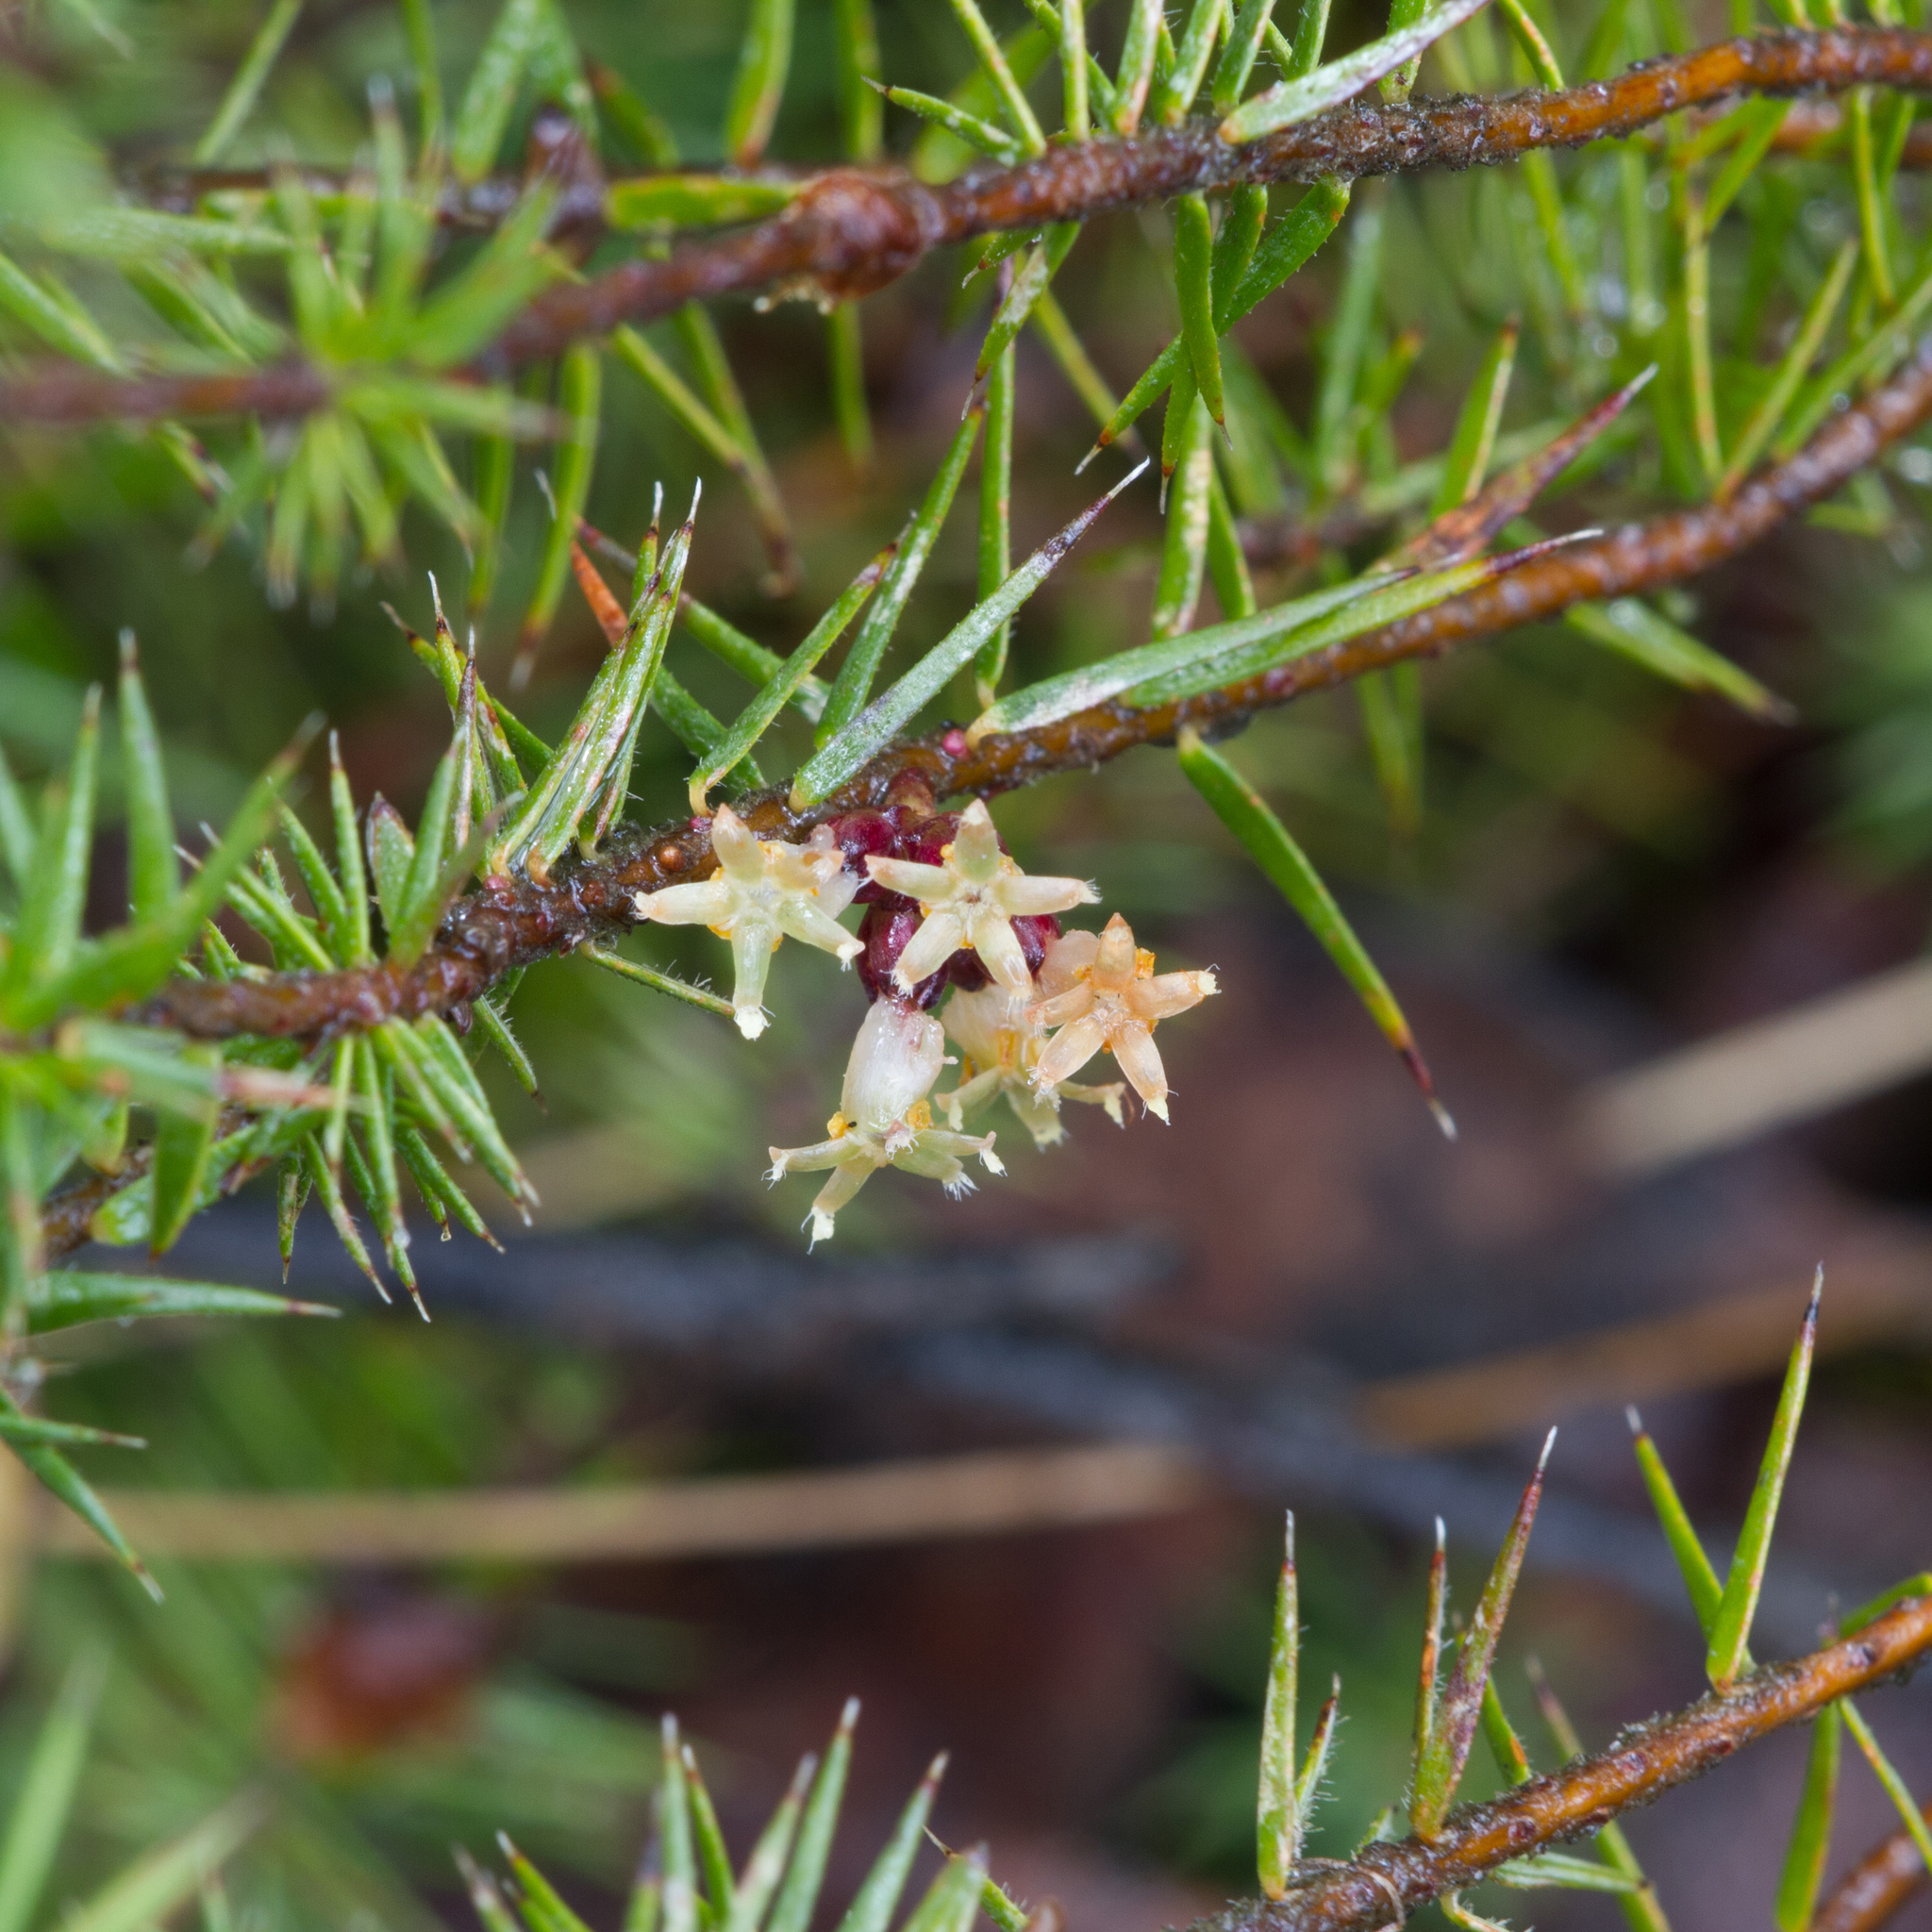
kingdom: Plantae
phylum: Tracheophyta
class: Magnoliopsida
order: Ericales
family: Ericaceae
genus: Acrotriche
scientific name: Acrotriche serrulata
